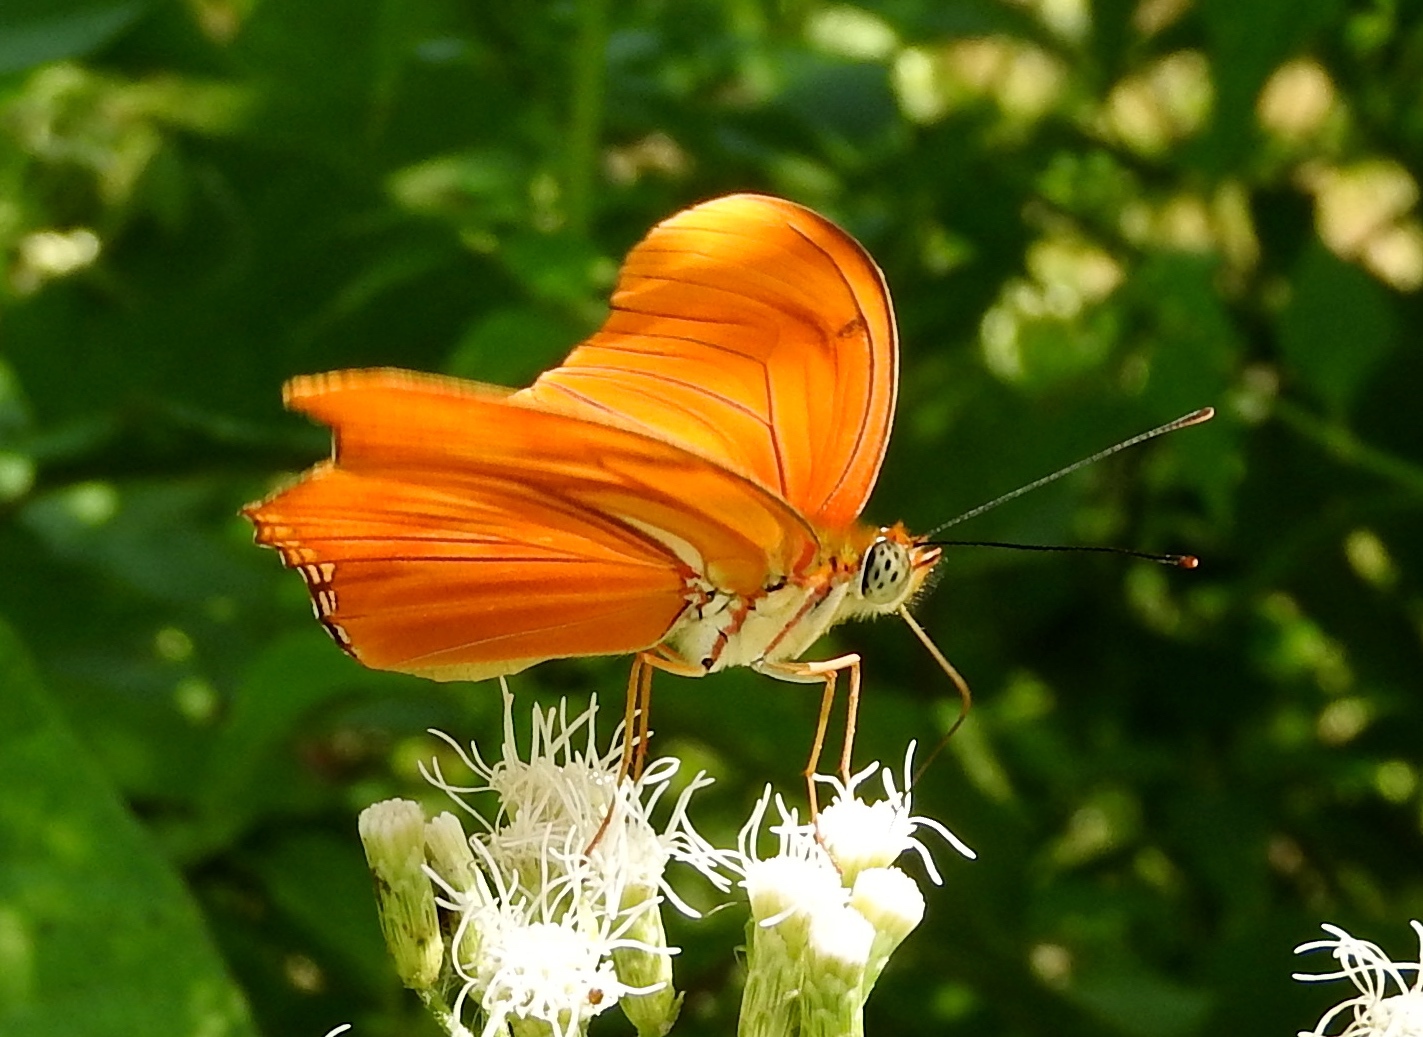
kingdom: Animalia
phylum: Arthropoda
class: Insecta
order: Lepidoptera
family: Nymphalidae
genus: Dryas
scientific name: Dryas iulia
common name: Flambeau
